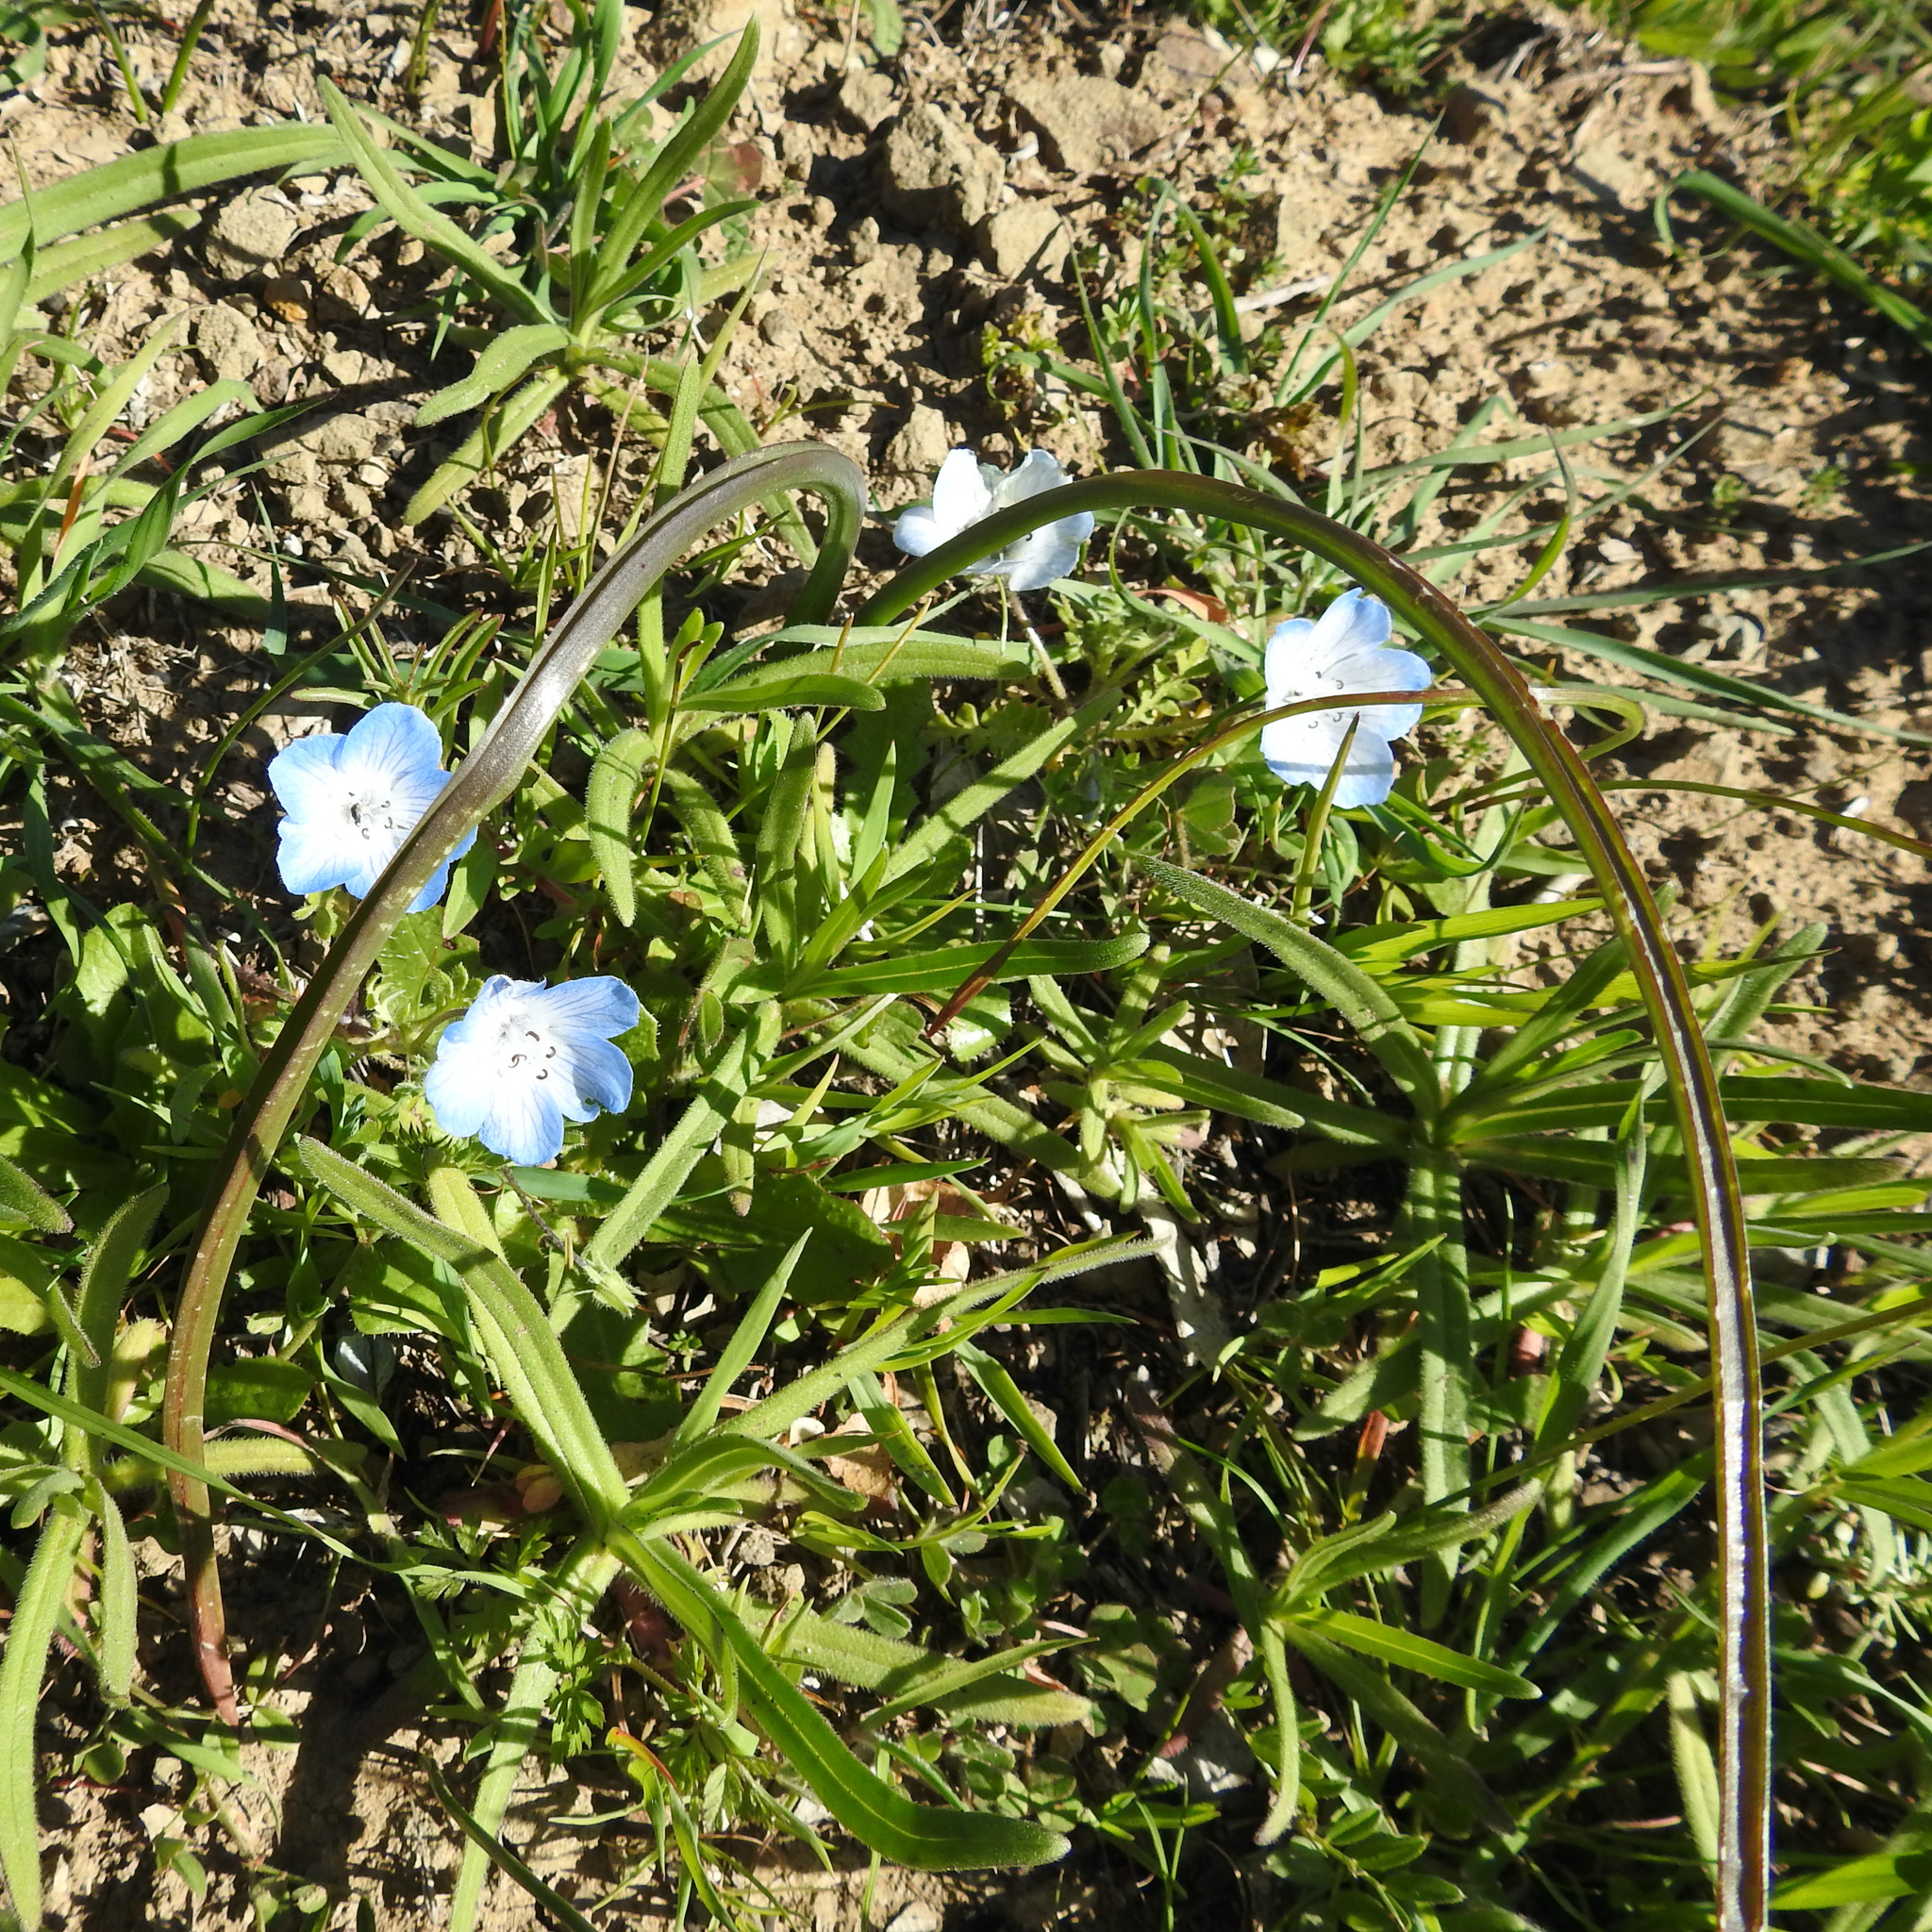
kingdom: Plantae
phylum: Tracheophyta
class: Magnoliopsida
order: Boraginales
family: Hydrophyllaceae
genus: Nemophila
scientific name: Nemophila menziesii
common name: Baby's-blue-eyes
